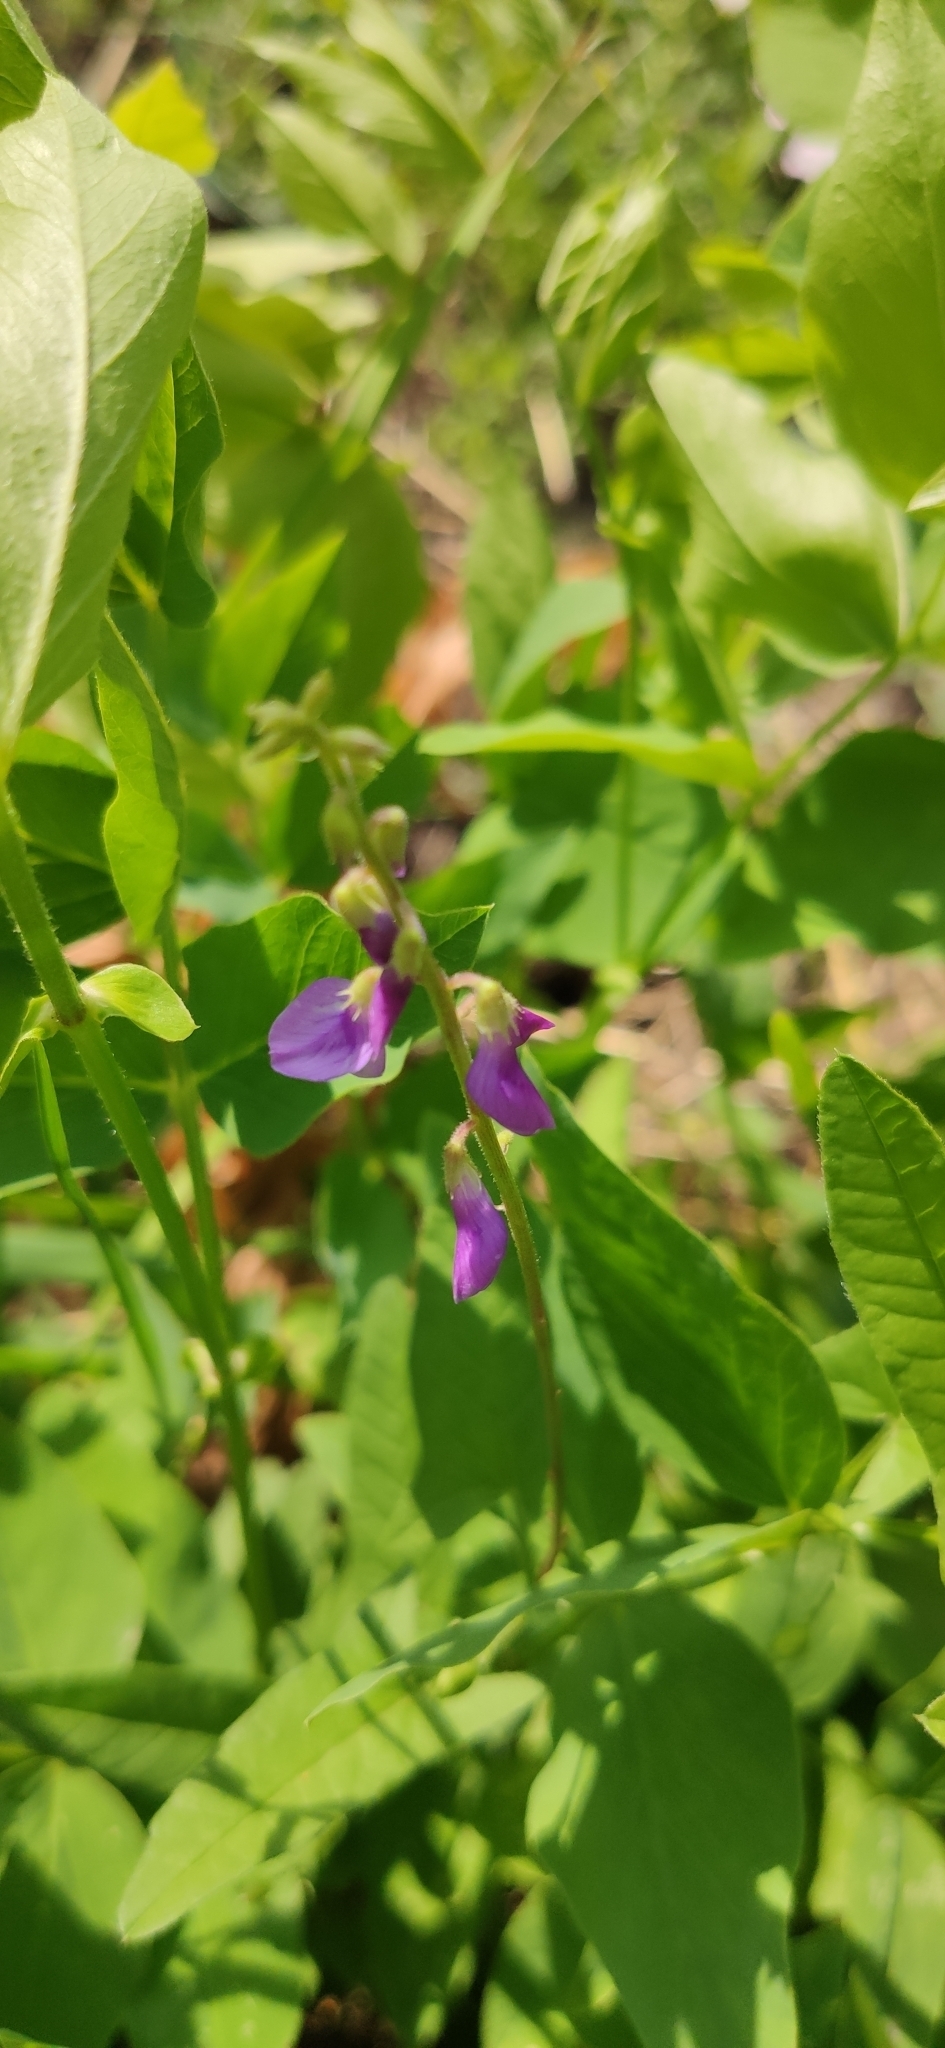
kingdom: Plantae
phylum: Tracheophyta
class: Magnoliopsida
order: Fabales
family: Fabaceae
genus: Galega
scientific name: Galega orientalis
